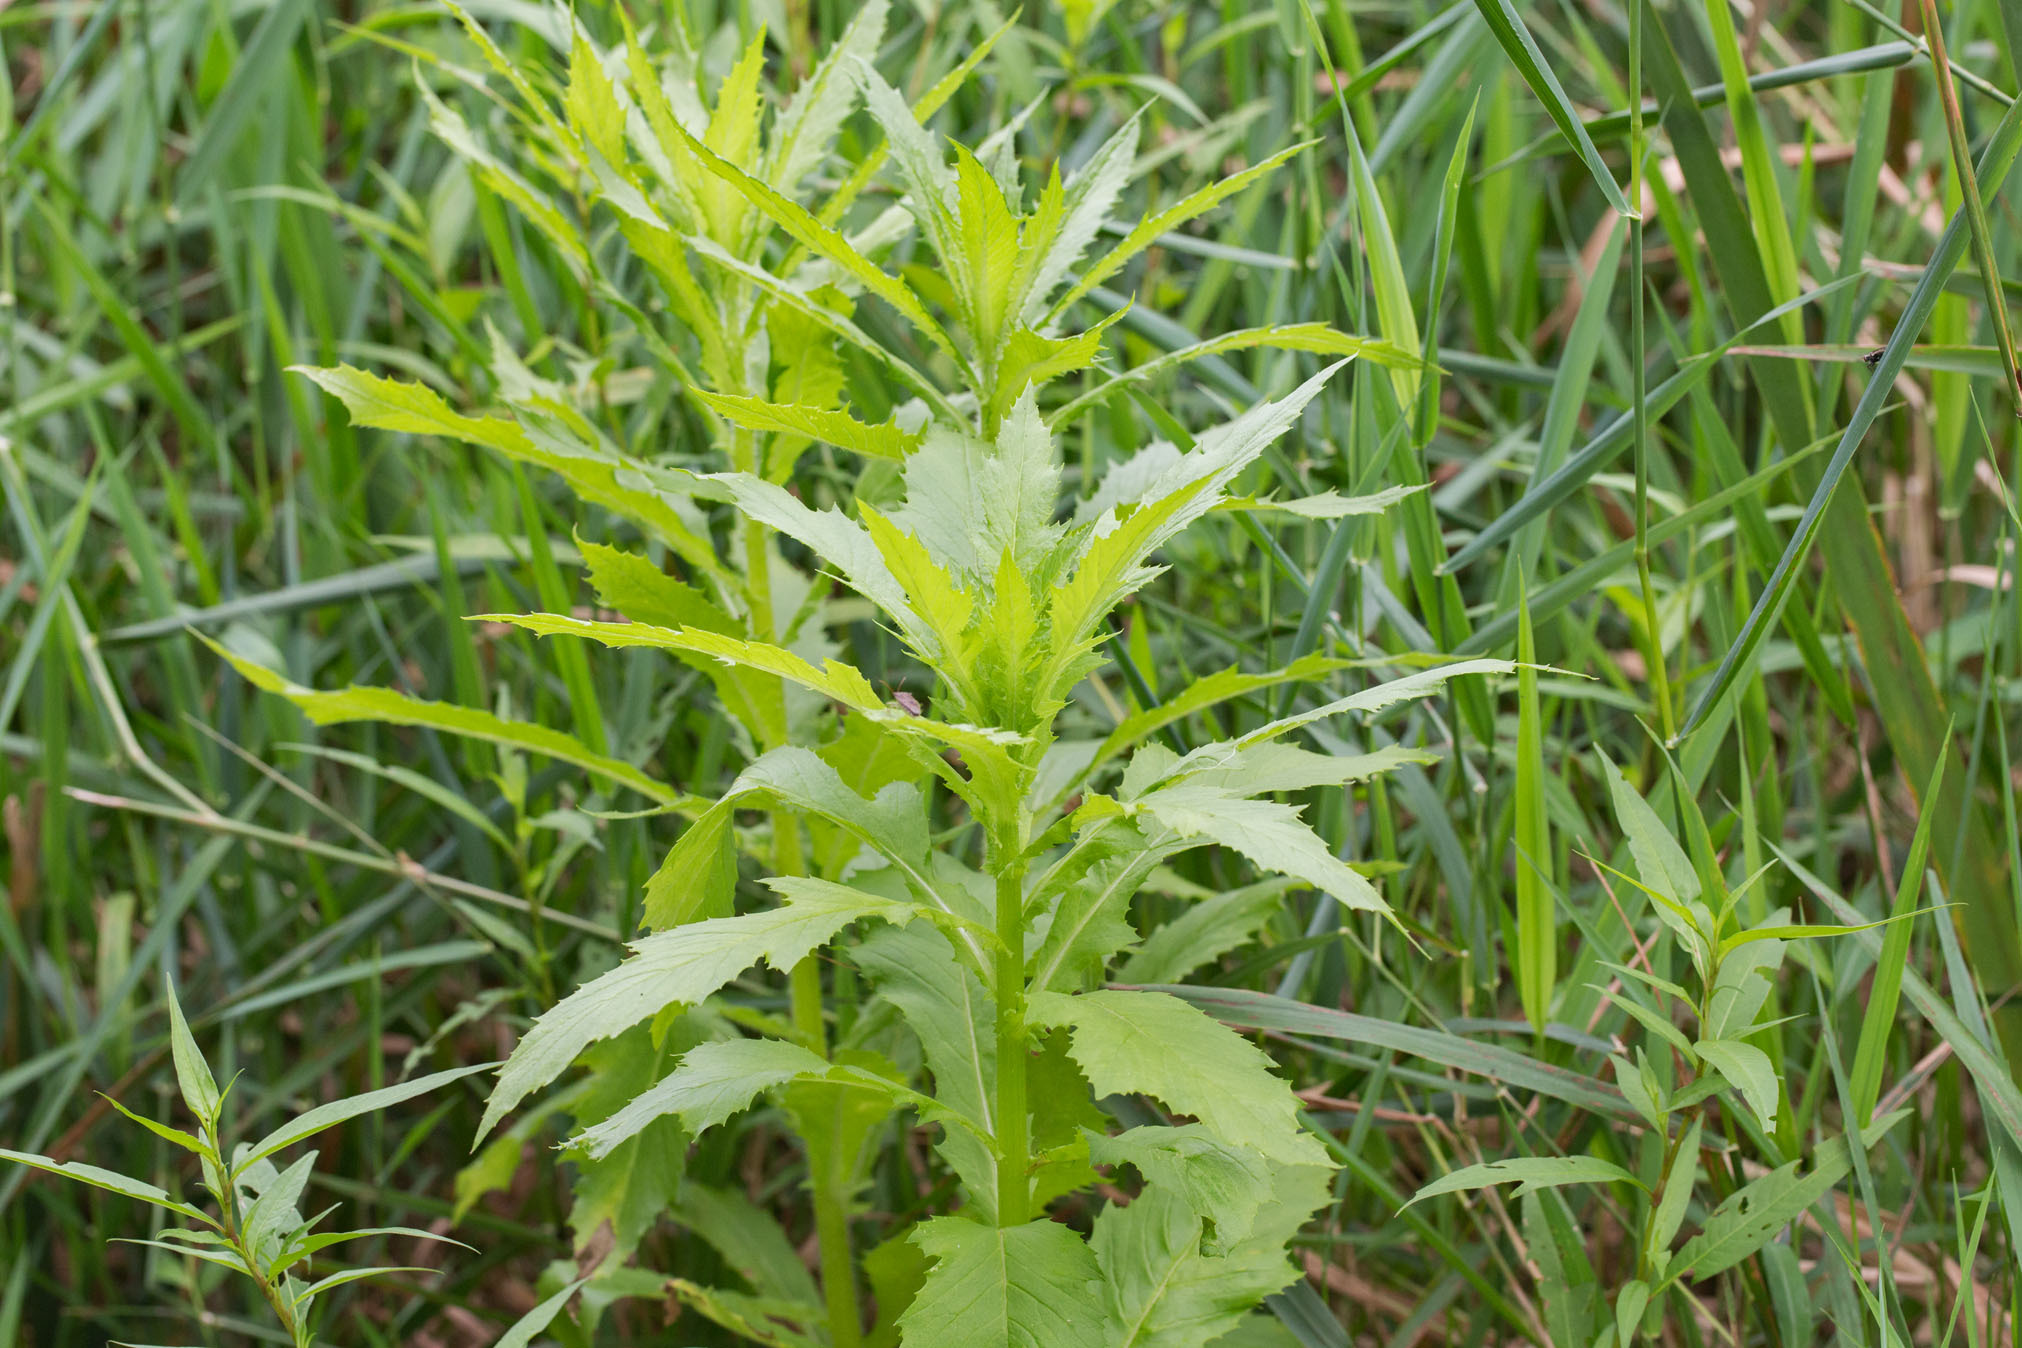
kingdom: Plantae
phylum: Tracheophyta
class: Magnoliopsida
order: Asterales
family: Asteraceae
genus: Erechtites
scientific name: Erechtites hieraciifolius
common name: American burnweed
